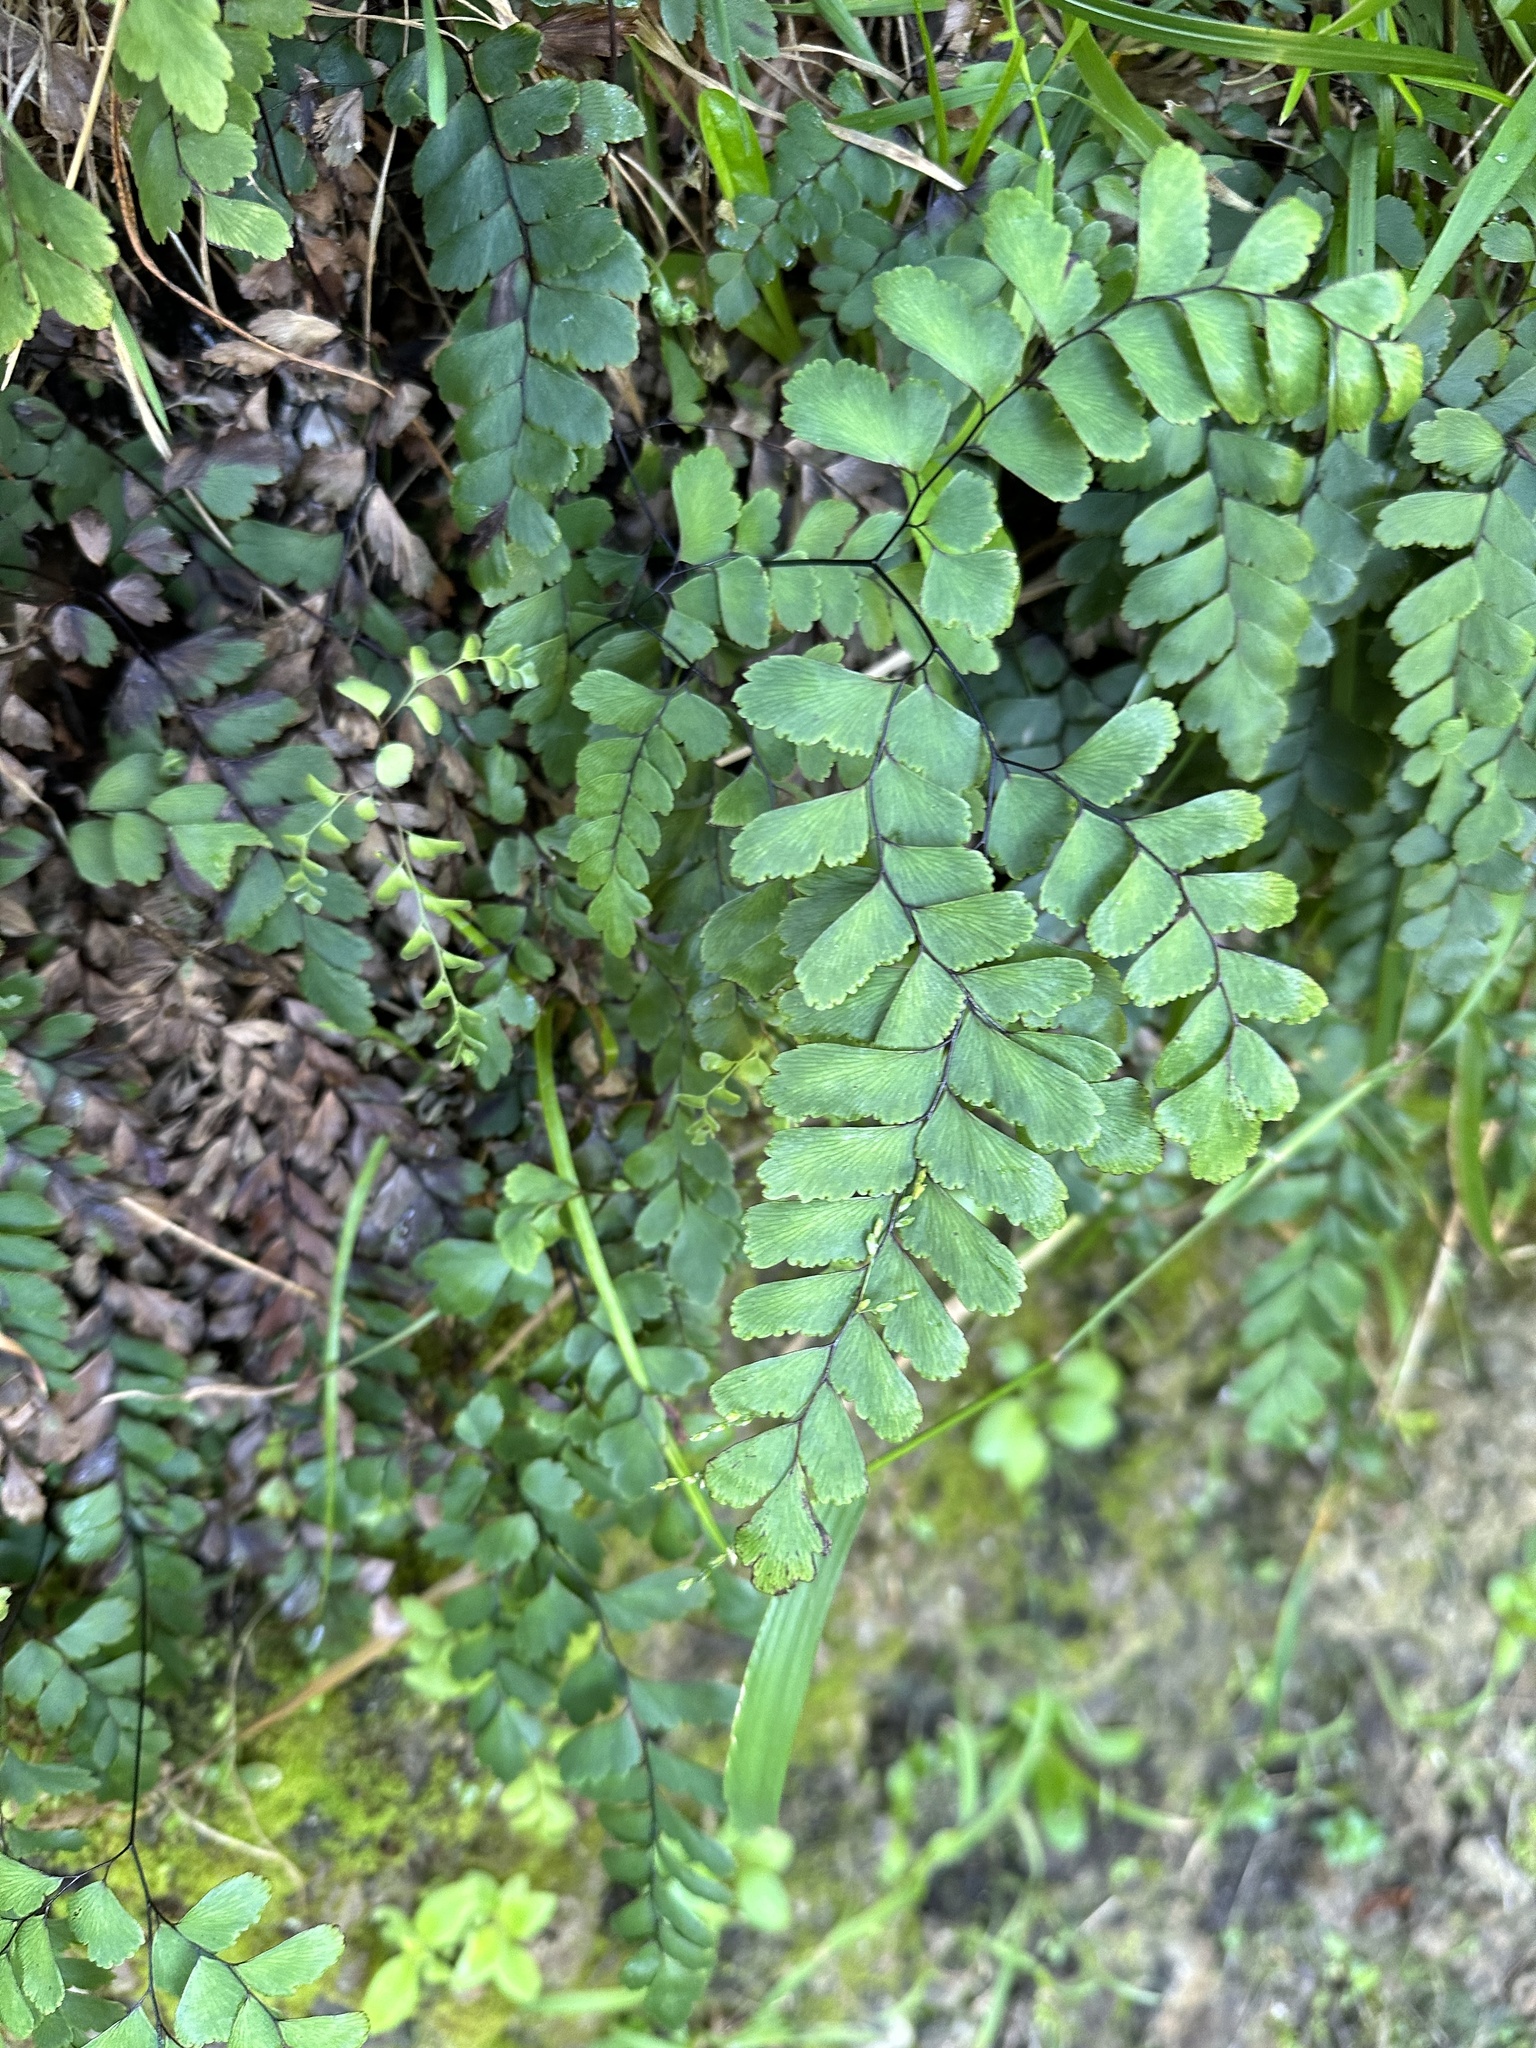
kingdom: Plantae
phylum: Tracheophyta
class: Polypodiopsida
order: Polypodiales
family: Pteridaceae
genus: Adiantum
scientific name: Adiantum cunninghamii
